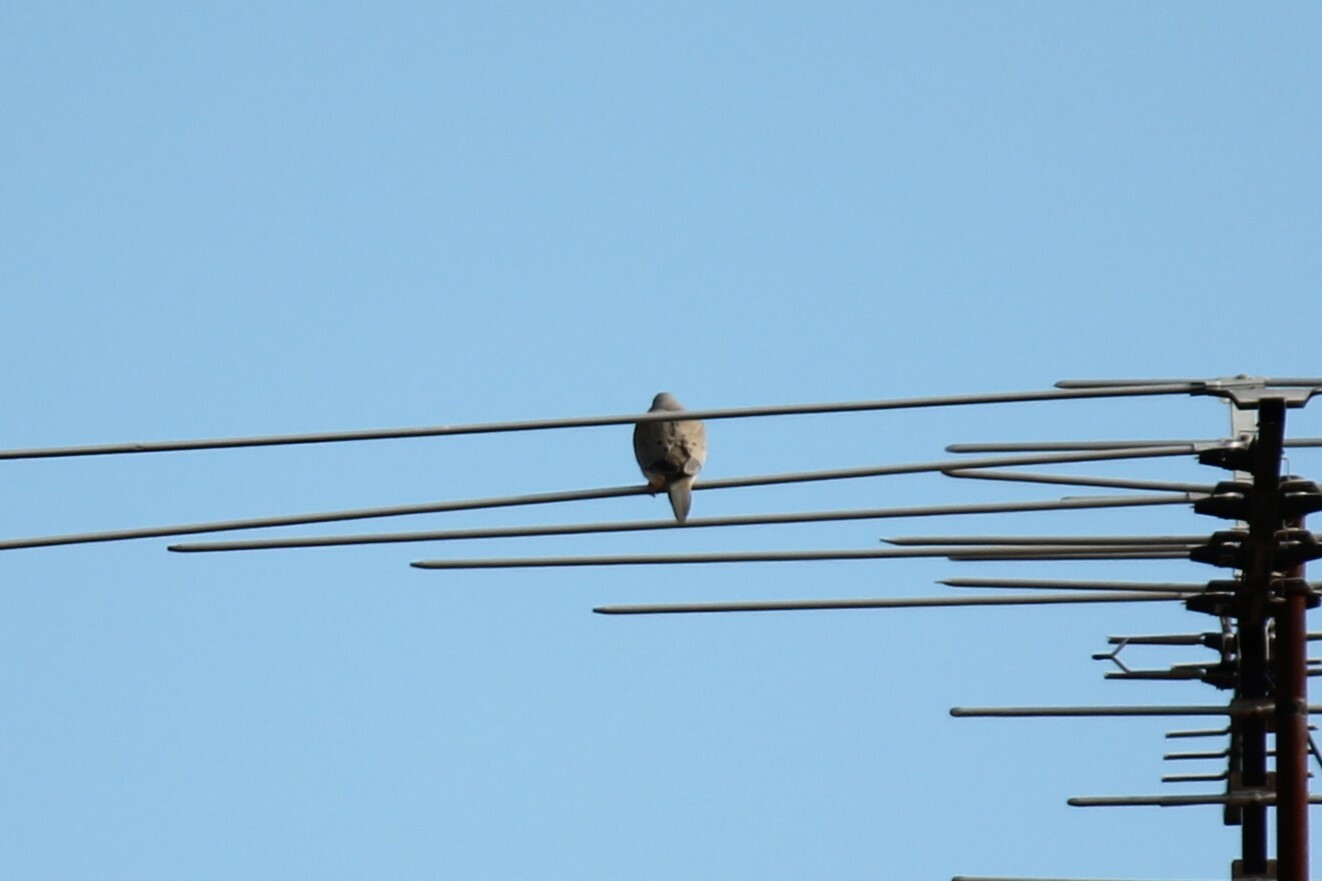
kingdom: Animalia
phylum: Chordata
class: Aves
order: Columbiformes
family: Columbidae
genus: Zenaida
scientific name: Zenaida macroura
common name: Mourning dove
